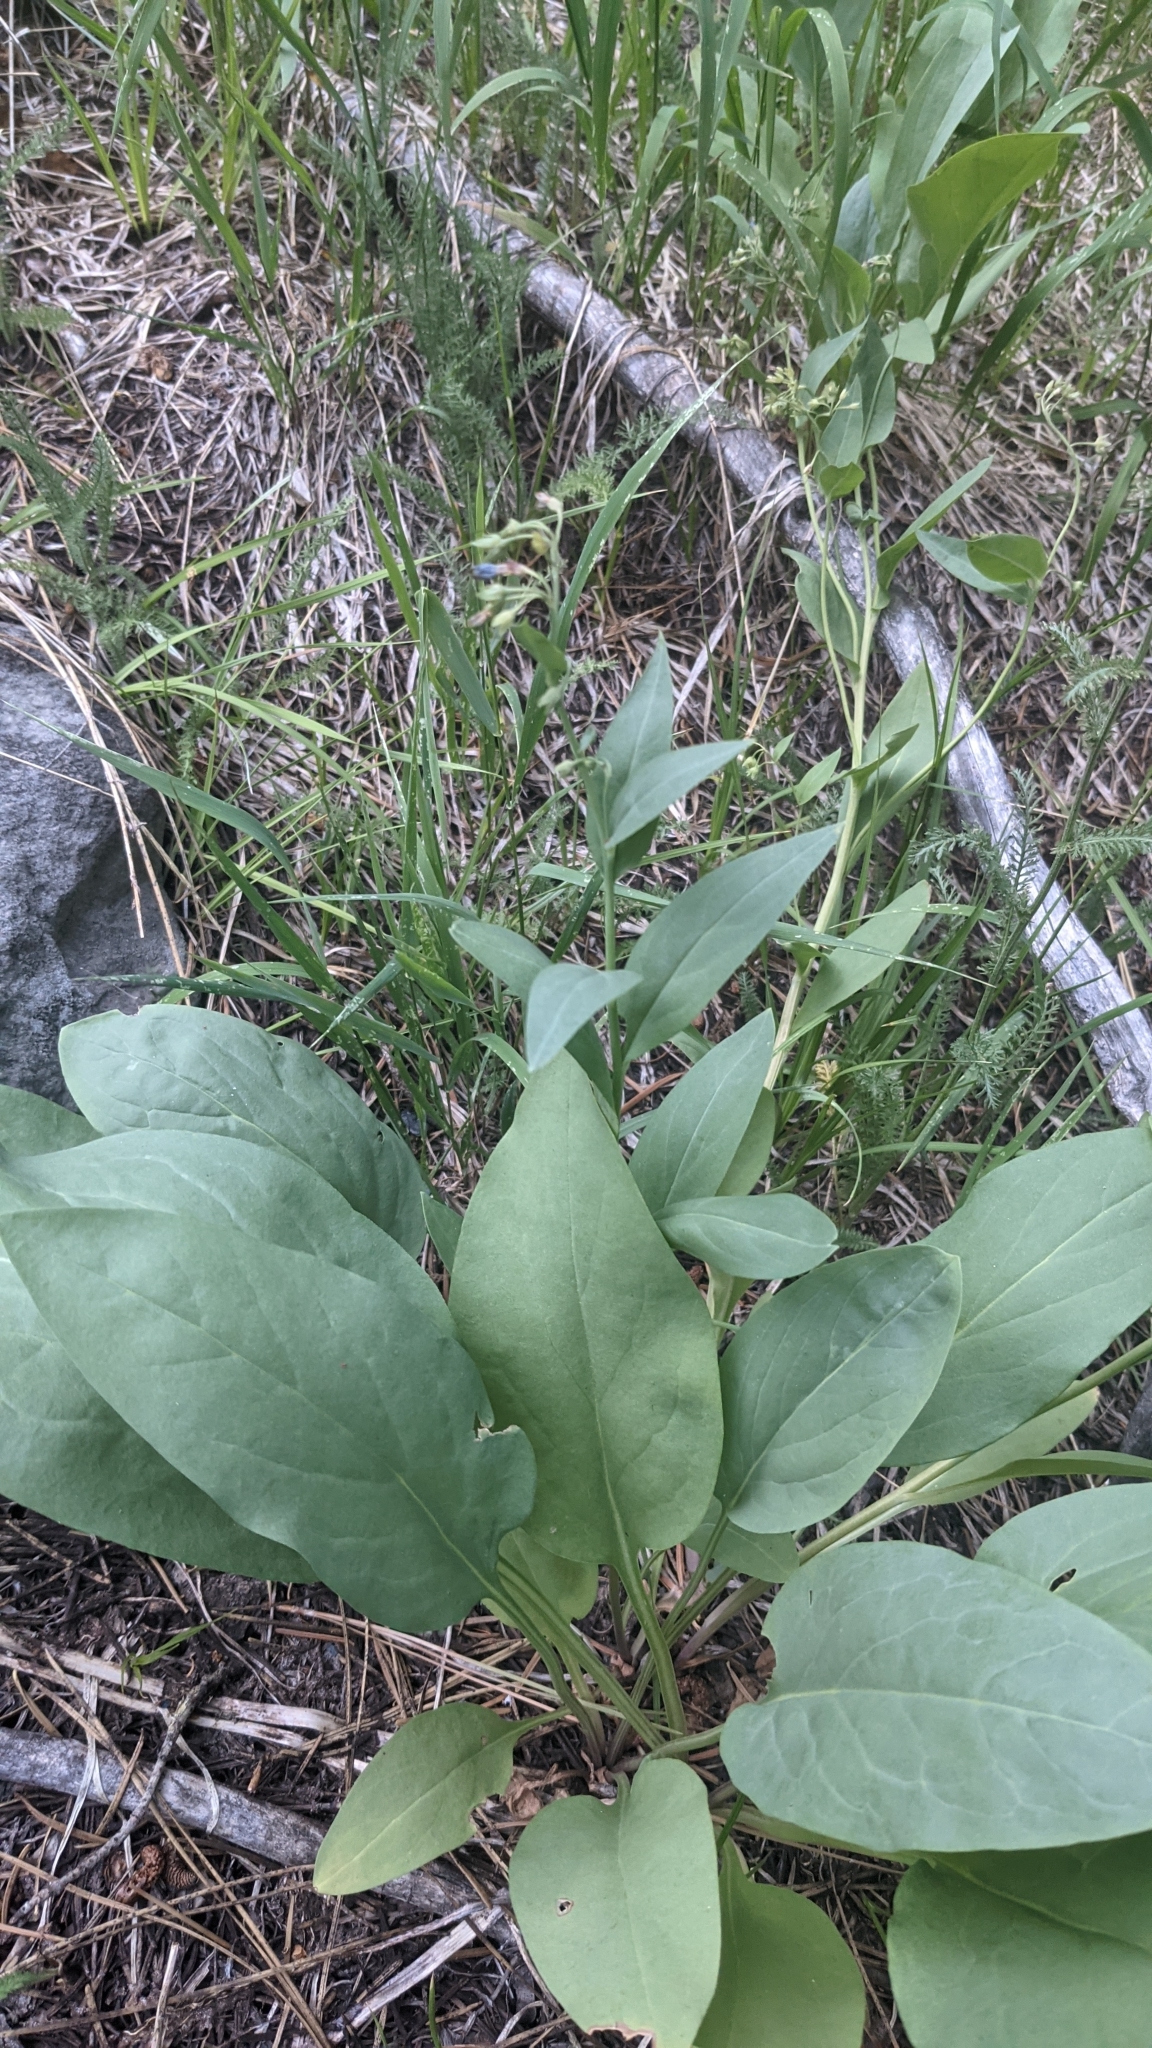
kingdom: Plantae
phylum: Tracheophyta
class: Magnoliopsida
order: Boraginales
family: Boraginaceae
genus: Mertensia
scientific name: Mertensia ciliata
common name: Tall chiming-bells
